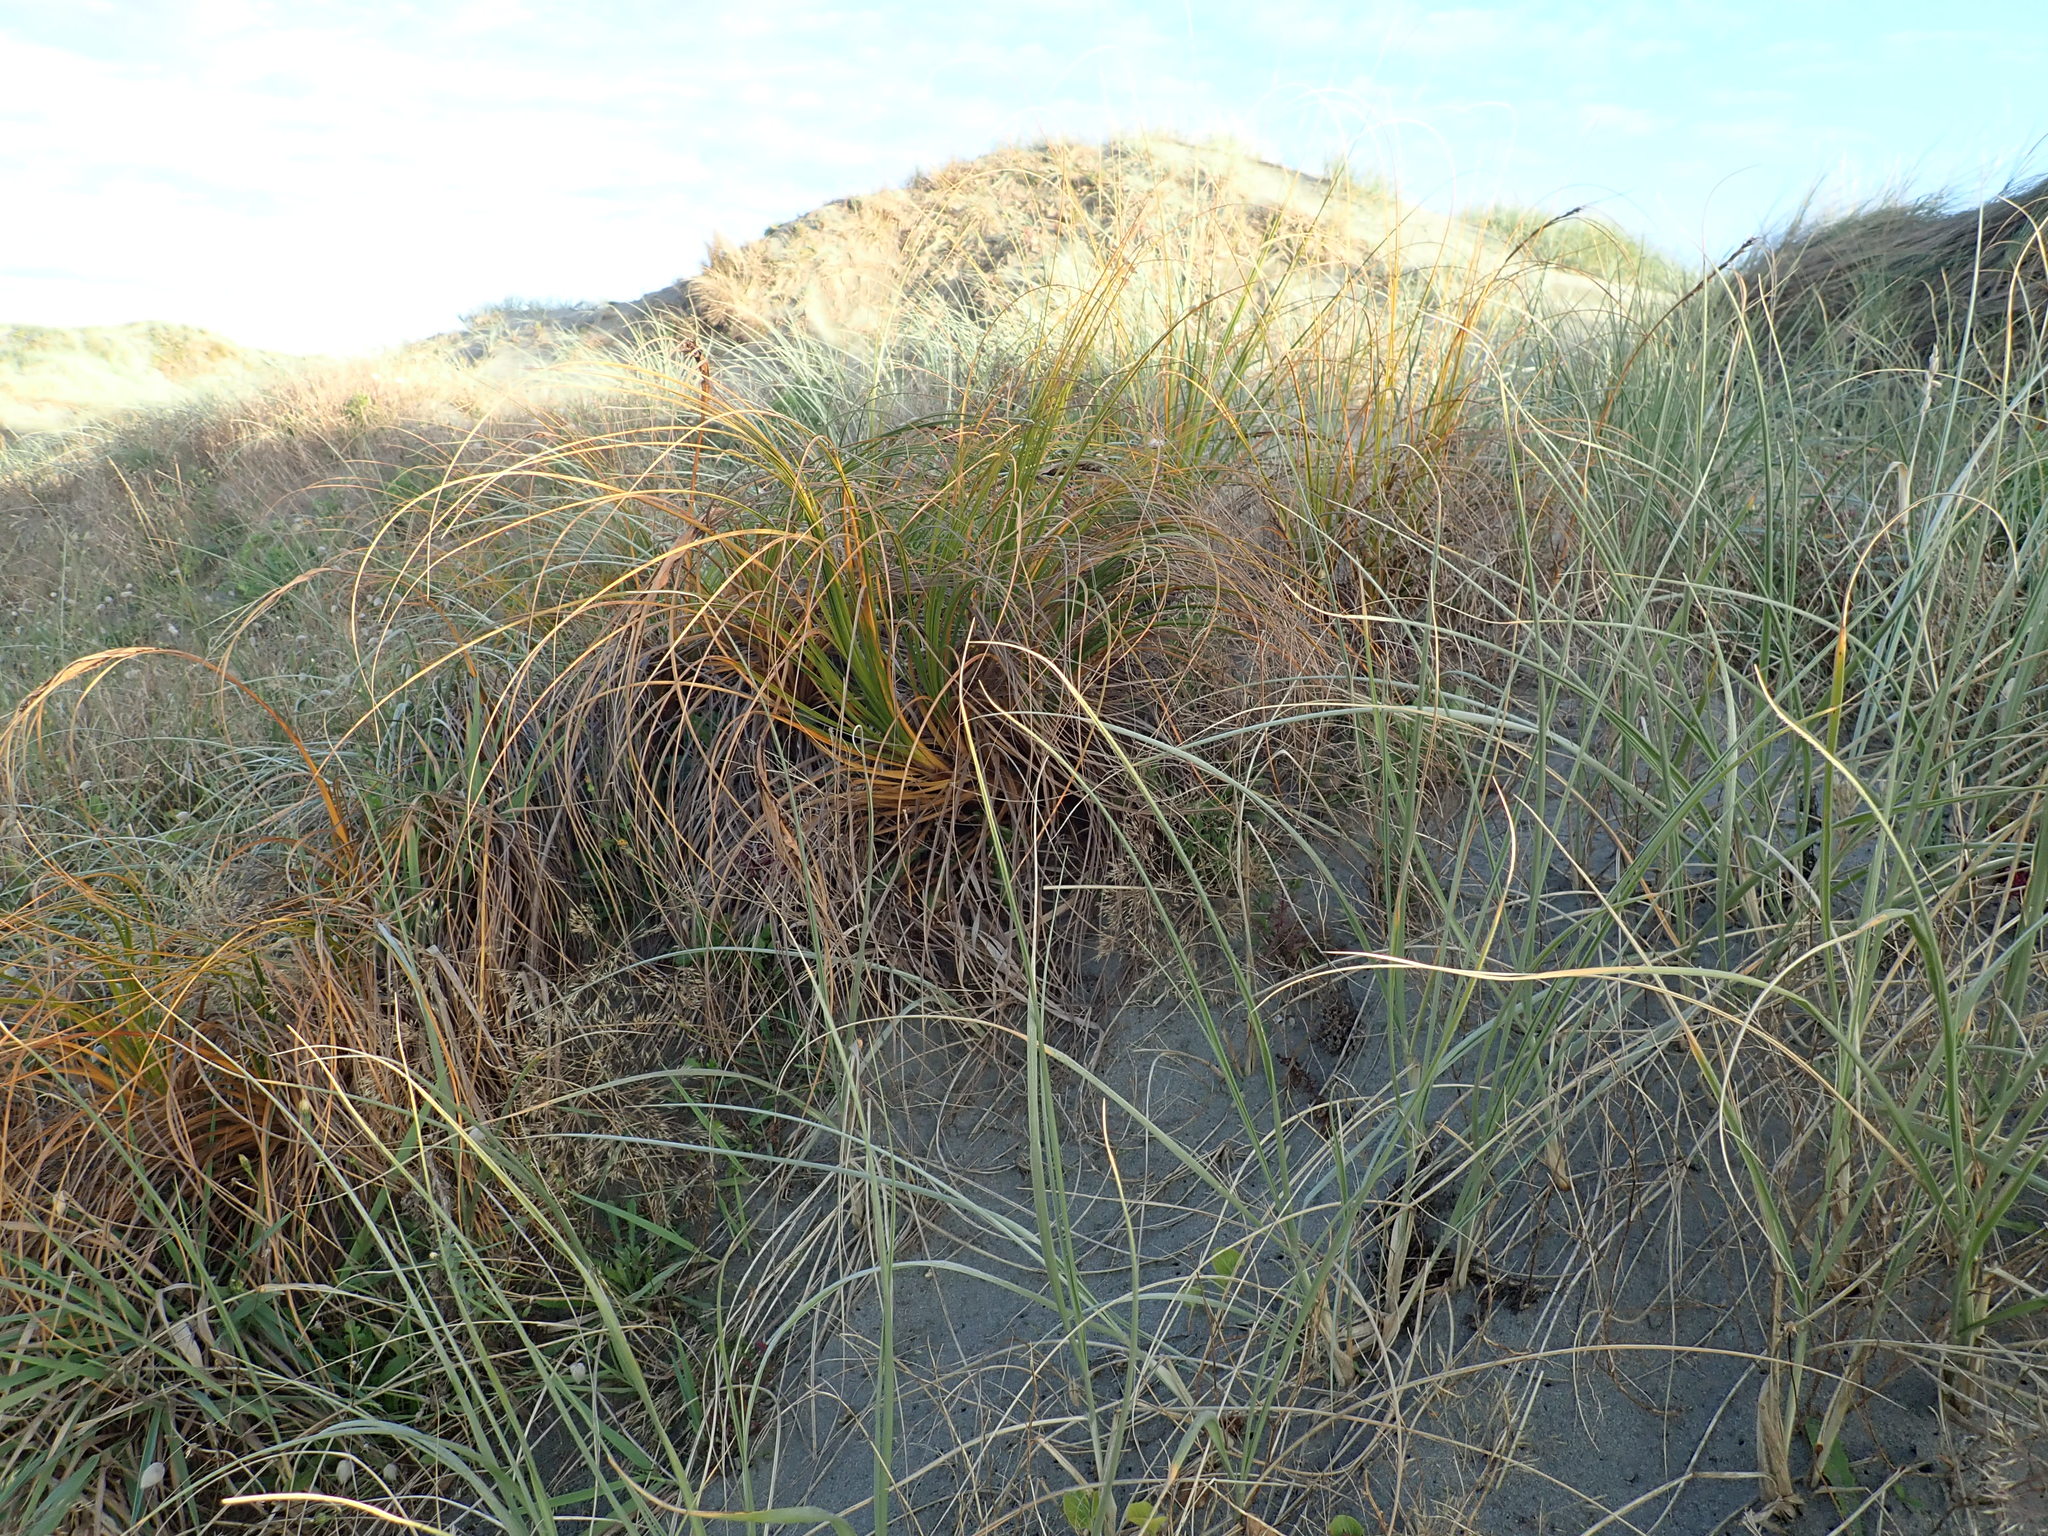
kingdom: Plantae
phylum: Tracheophyta
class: Liliopsida
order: Poales
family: Cyperaceae
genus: Ficinia
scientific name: Ficinia spiralis
